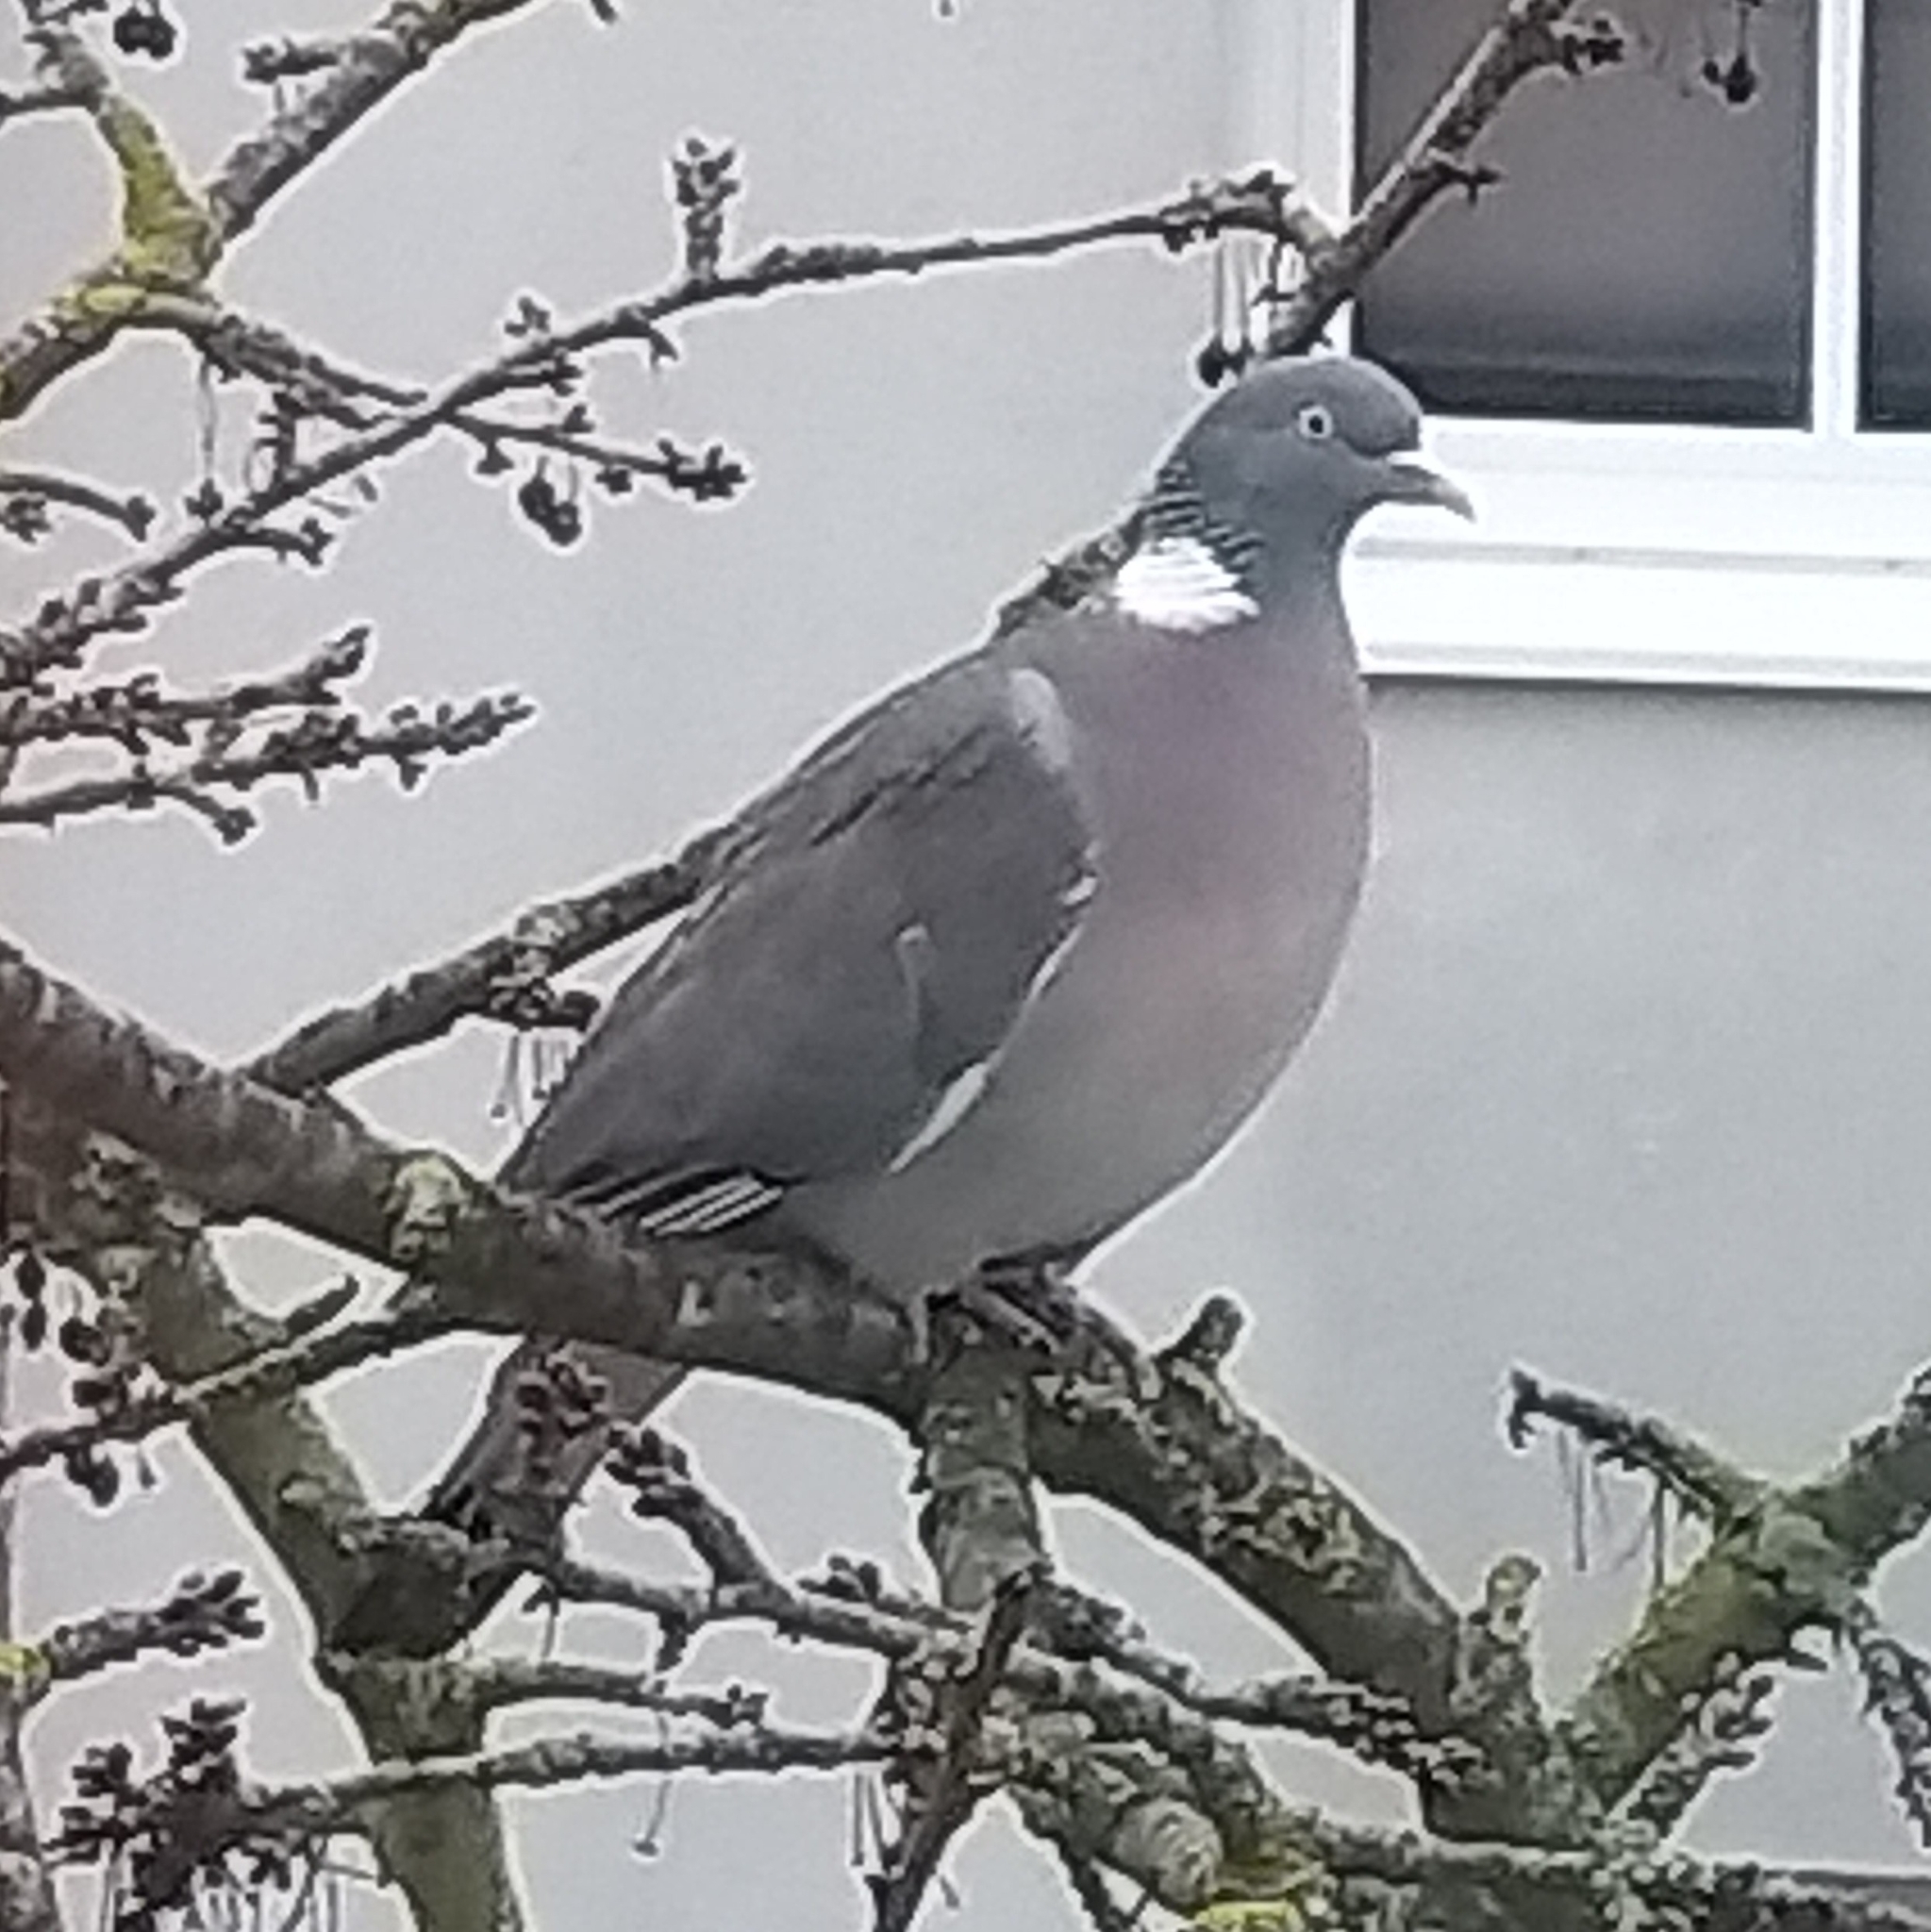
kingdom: Animalia
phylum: Chordata
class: Aves
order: Columbiformes
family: Columbidae
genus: Columba
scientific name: Columba palumbus
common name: Common wood pigeon
